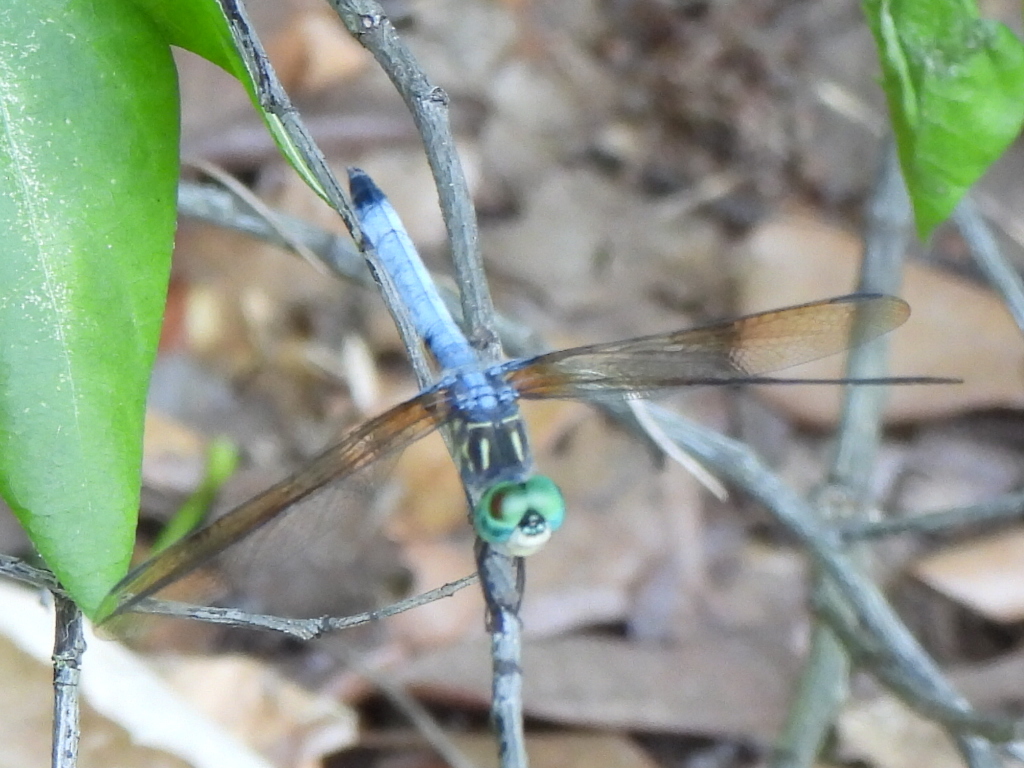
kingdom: Animalia
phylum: Arthropoda
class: Insecta
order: Odonata
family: Libellulidae
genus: Pachydiplax
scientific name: Pachydiplax longipennis
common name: Blue dasher
